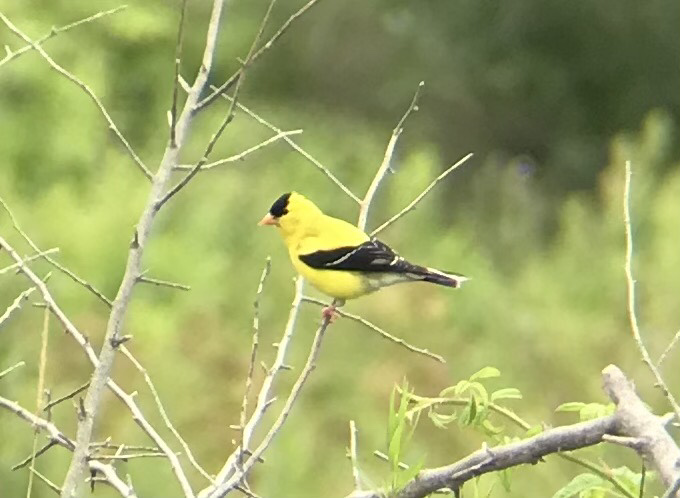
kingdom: Animalia
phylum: Chordata
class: Aves
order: Passeriformes
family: Fringillidae
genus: Spinus
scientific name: Spinus tristis
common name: American goldfinch
